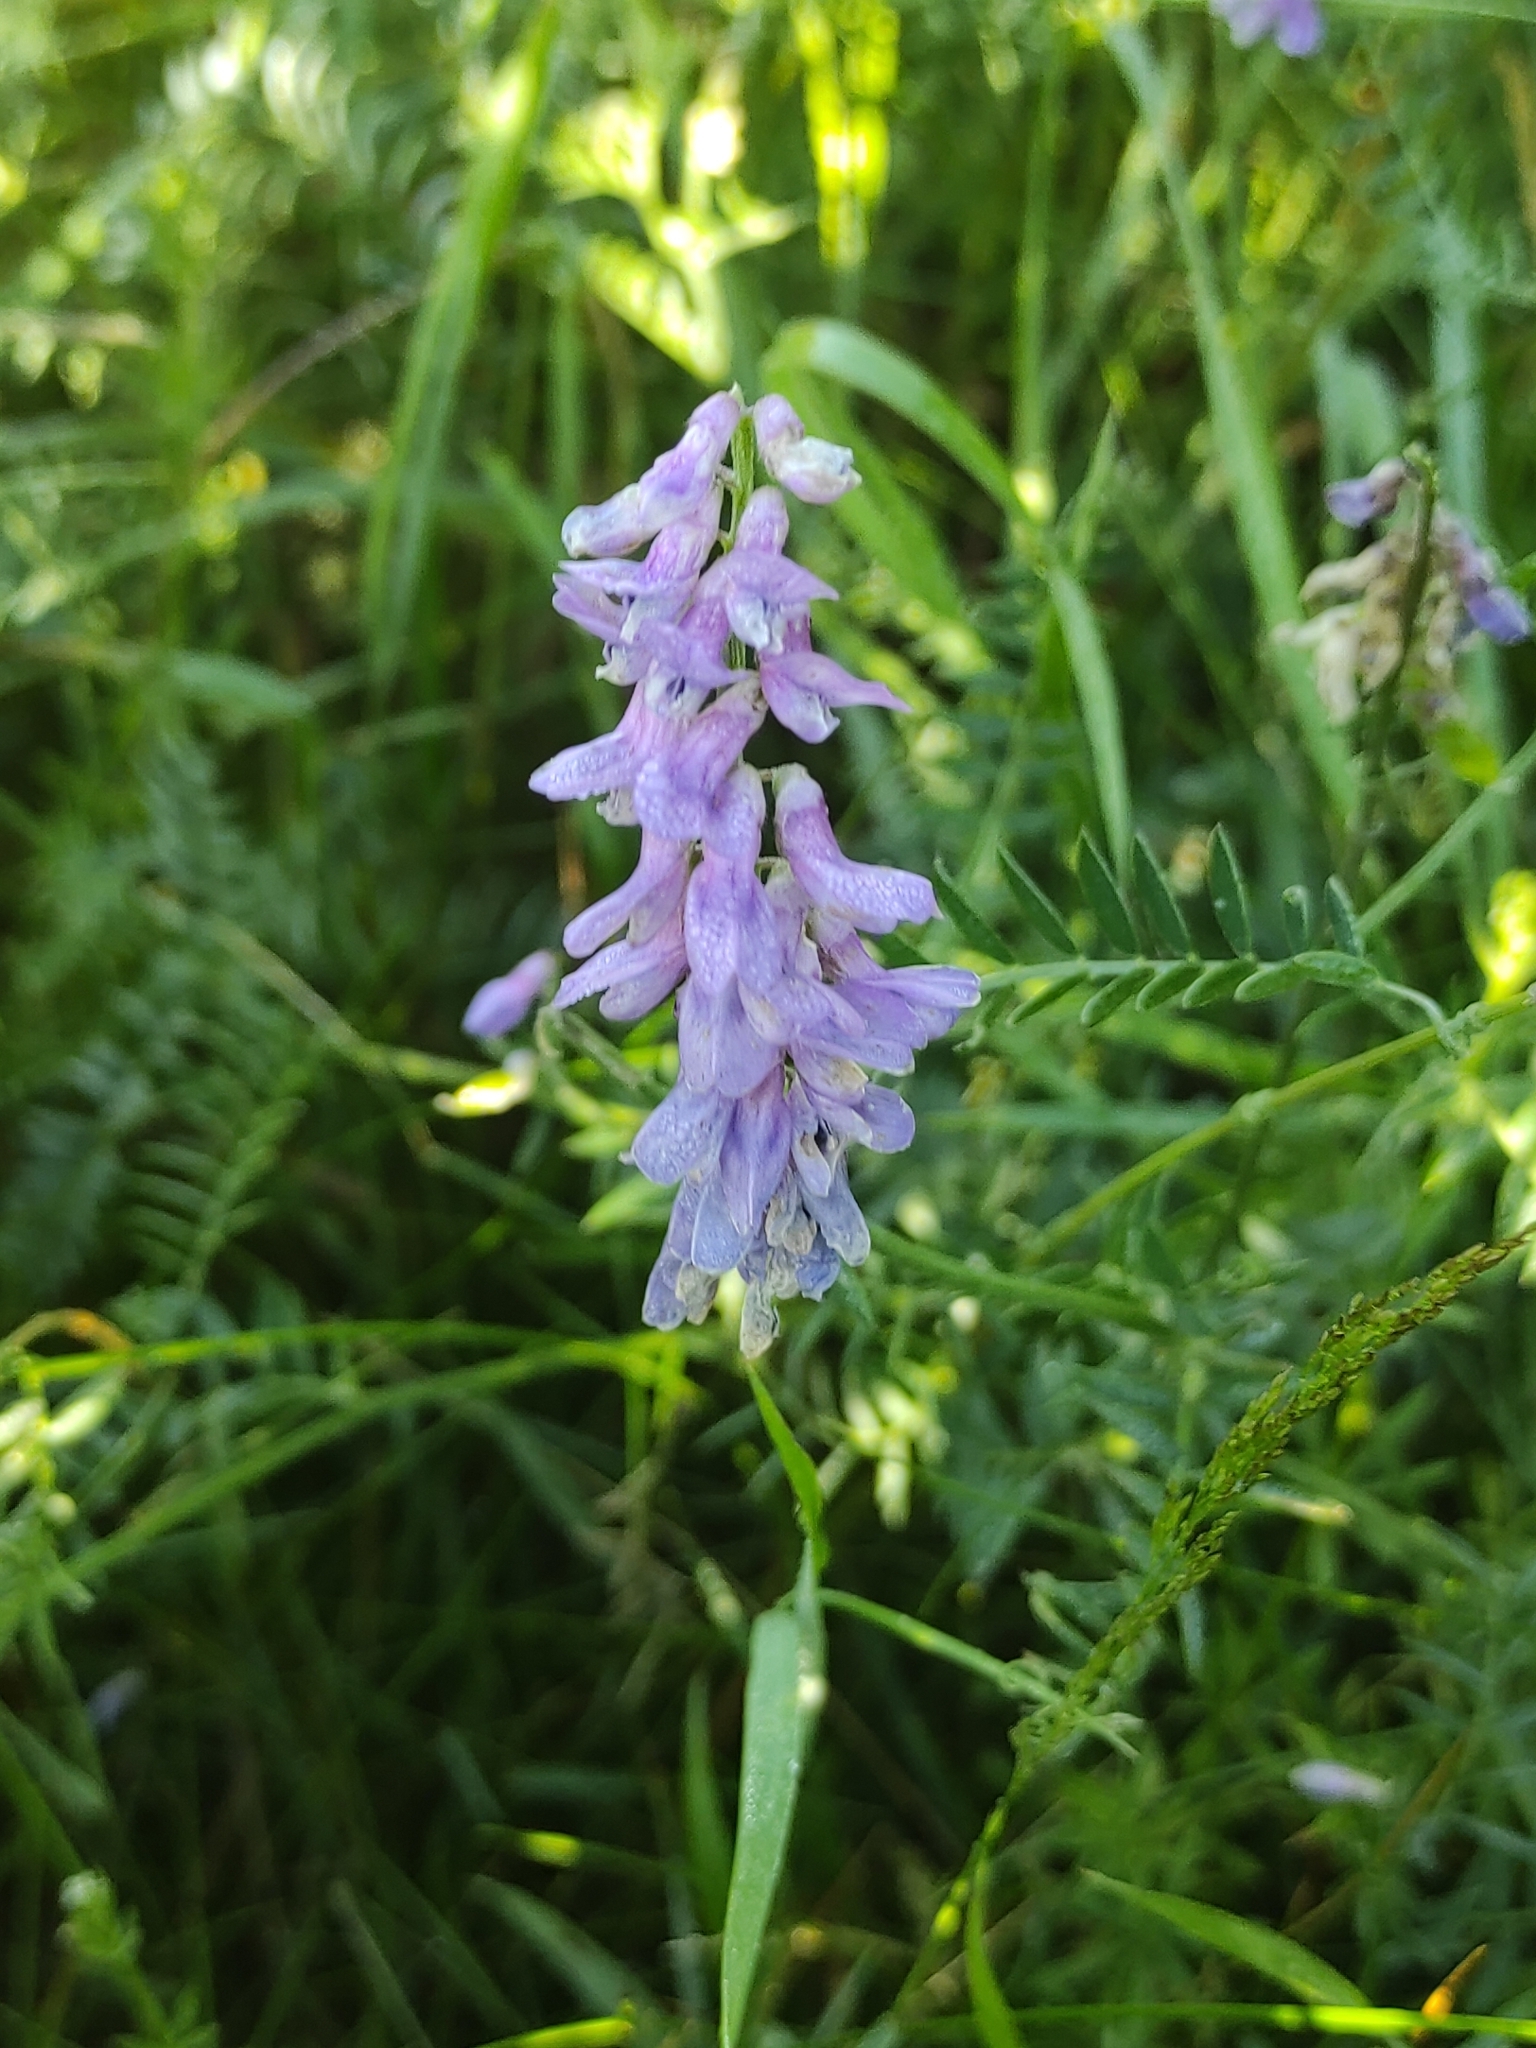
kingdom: Plantae
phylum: Tracheophyta
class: Magnoliopsida
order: Fabales
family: Fabaceae
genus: Vicia
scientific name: Vicia cracca
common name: Bird vetch
